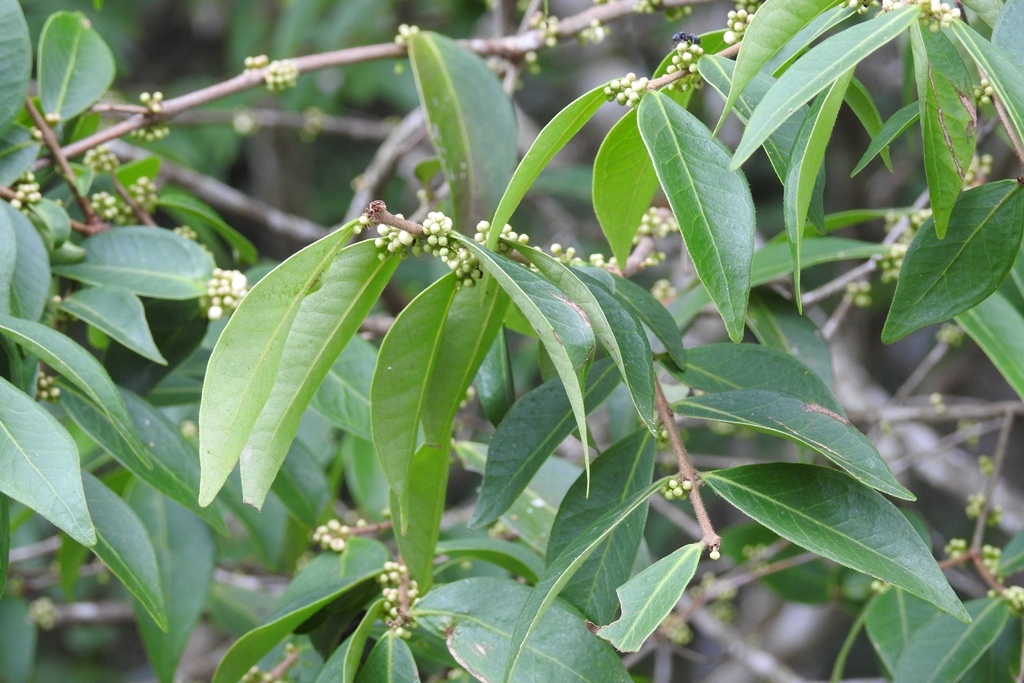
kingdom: Plantae
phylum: Tracheophyta
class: Magnoliopsida
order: Myrtales
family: Myrtaceae
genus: Eugenia
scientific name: Eugenia capulioides
